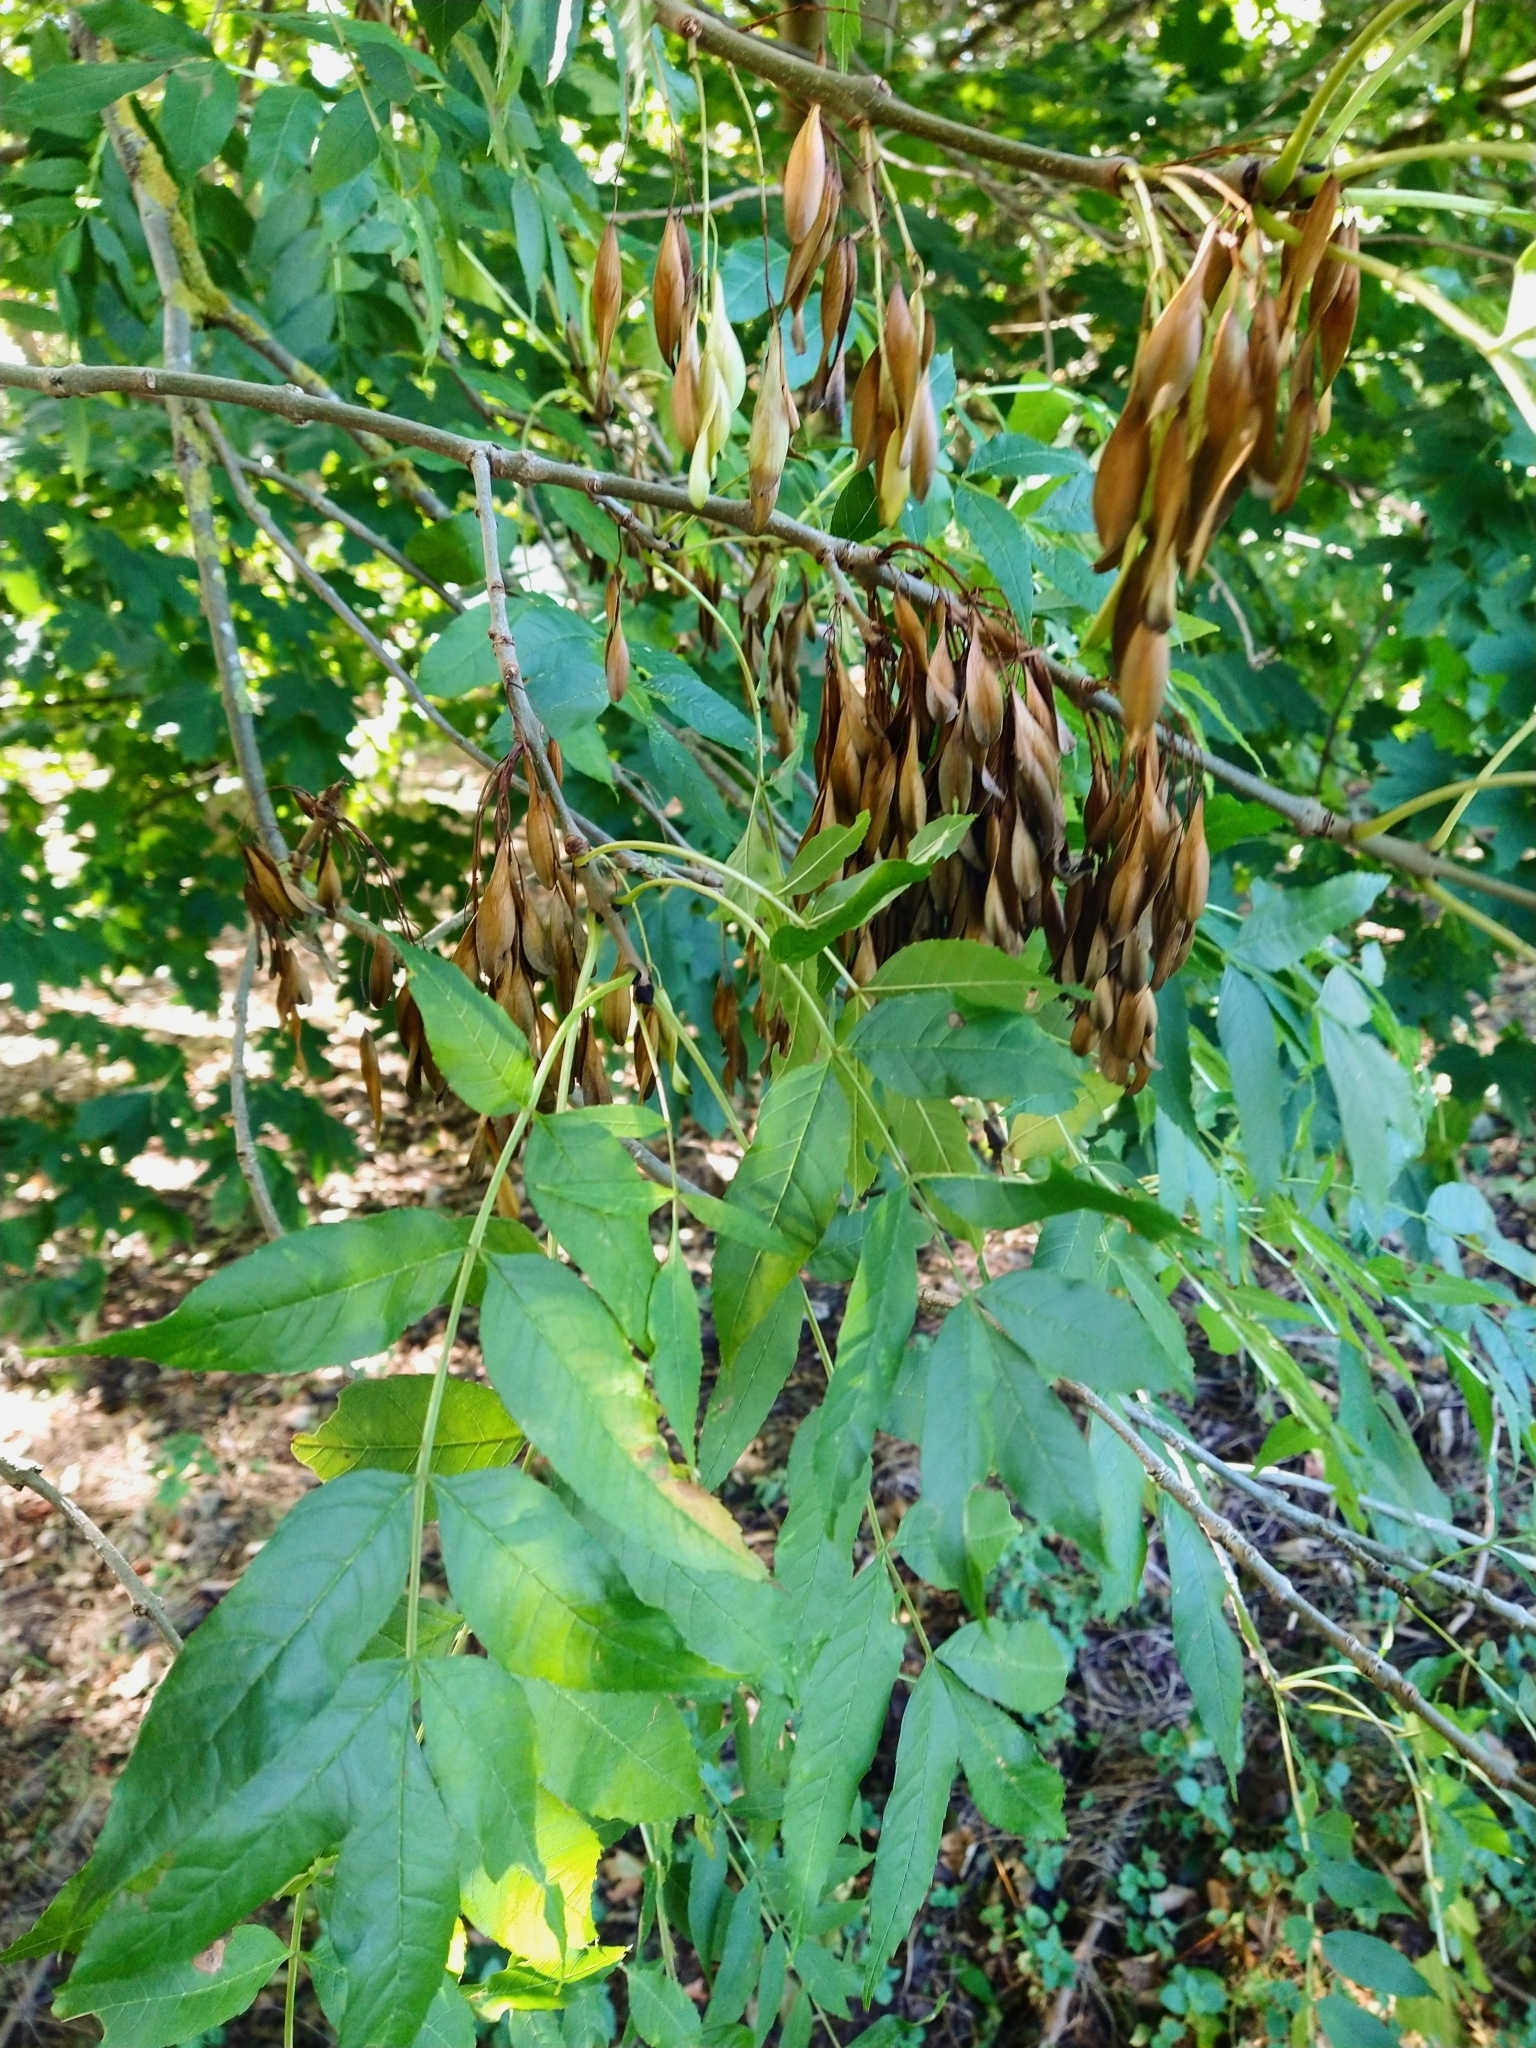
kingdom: Plantae
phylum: Tracheophyta
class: Magnoliopsida
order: Lamiales
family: Oleaceae
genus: Fraxinus
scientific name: Fraxinus
